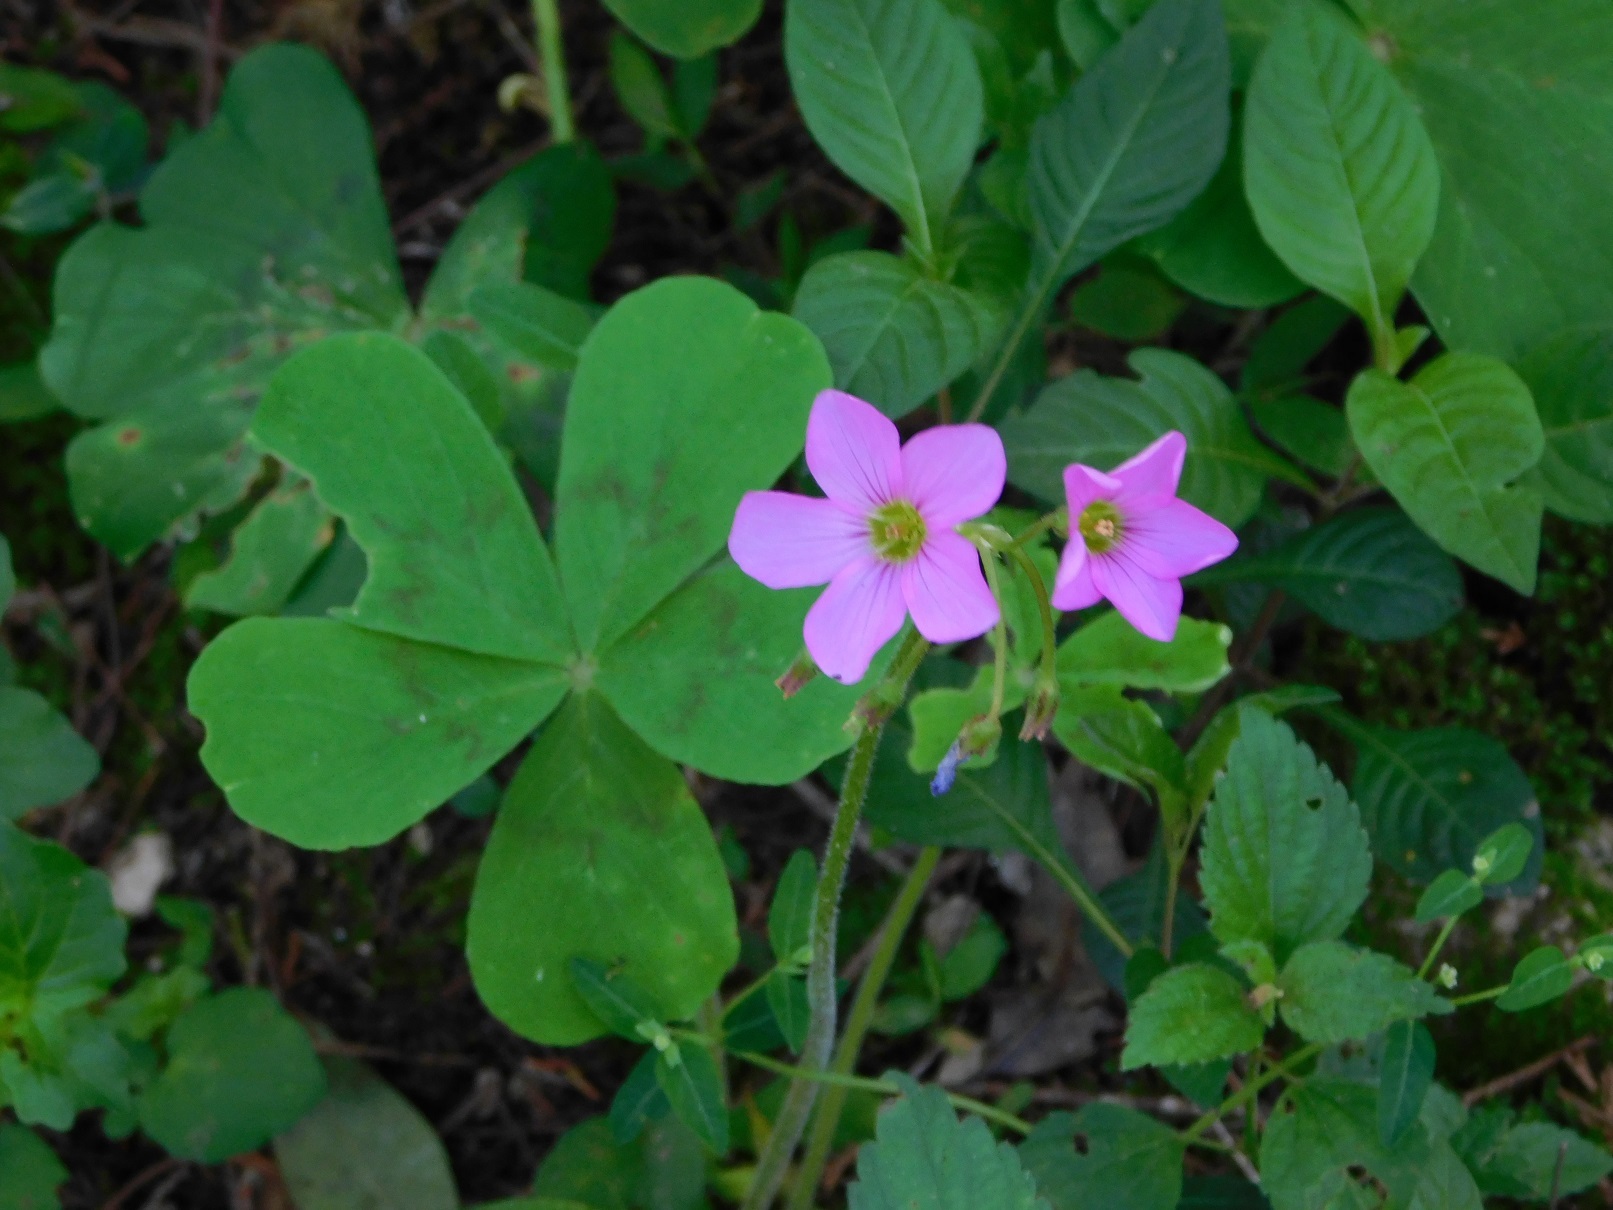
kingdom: Plantae
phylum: Tracheophyta
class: Magnoliopsida
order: Oxalidales
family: Oxalidaceae
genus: Oxalis
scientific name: Oxalis nelsonii
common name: Sorrel
